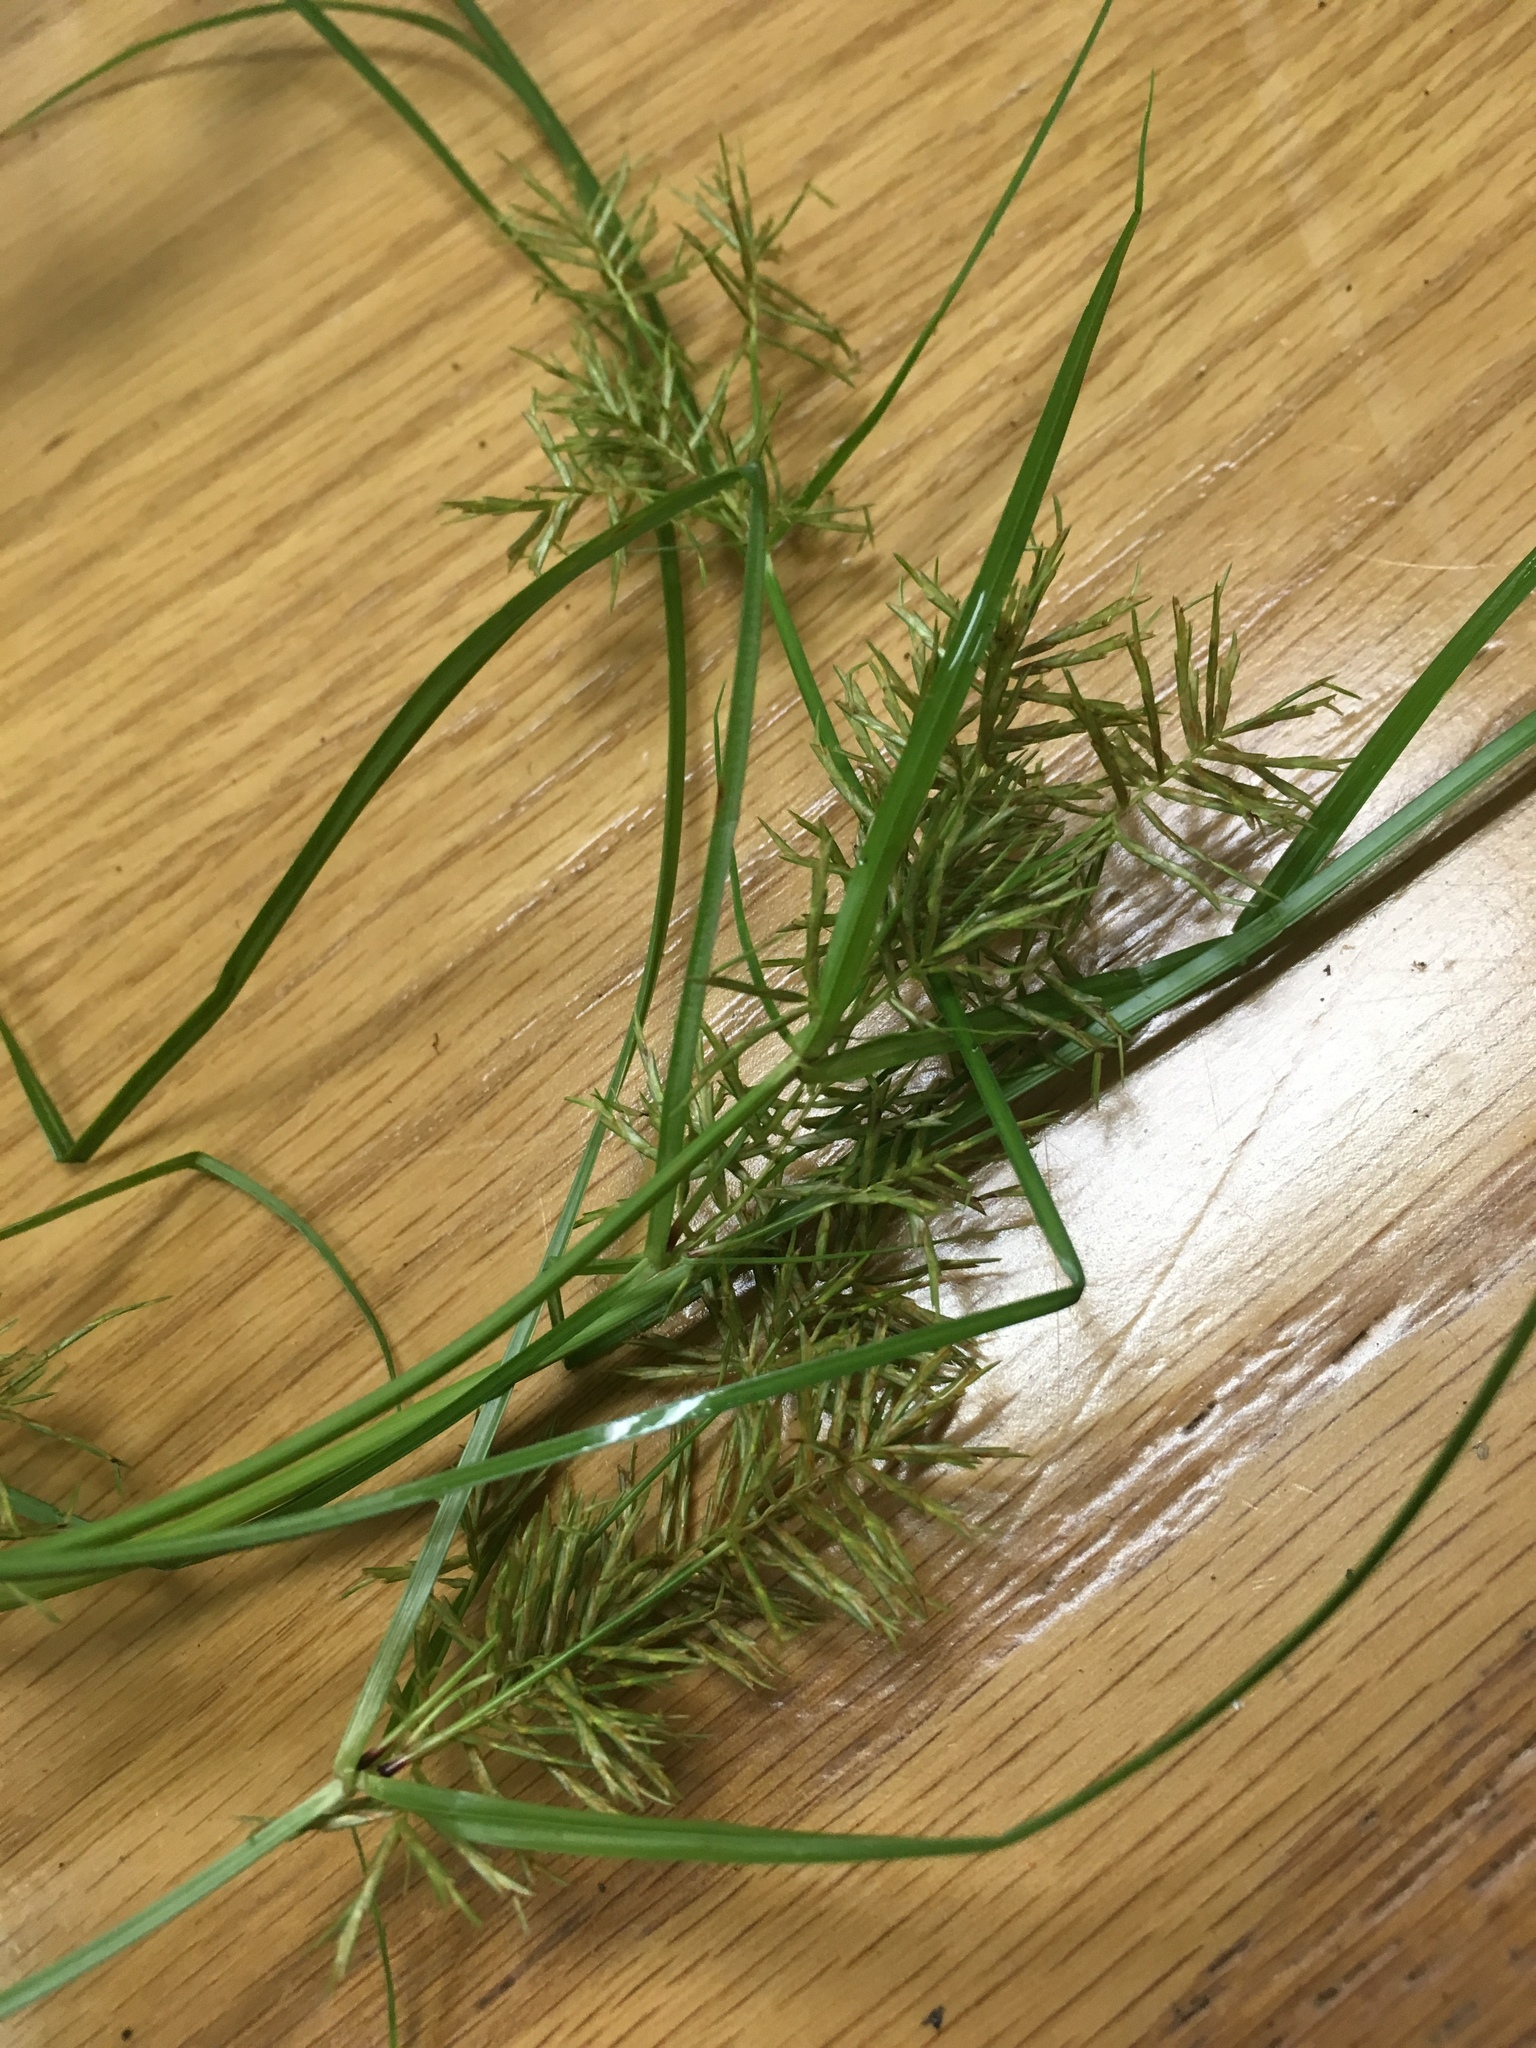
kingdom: Plantae
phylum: Tracheophyta
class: Liliopsida
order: Poales
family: Cyperaceae
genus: Cyperus
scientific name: Cyperus odoratus
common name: Fragrant flatsedge
